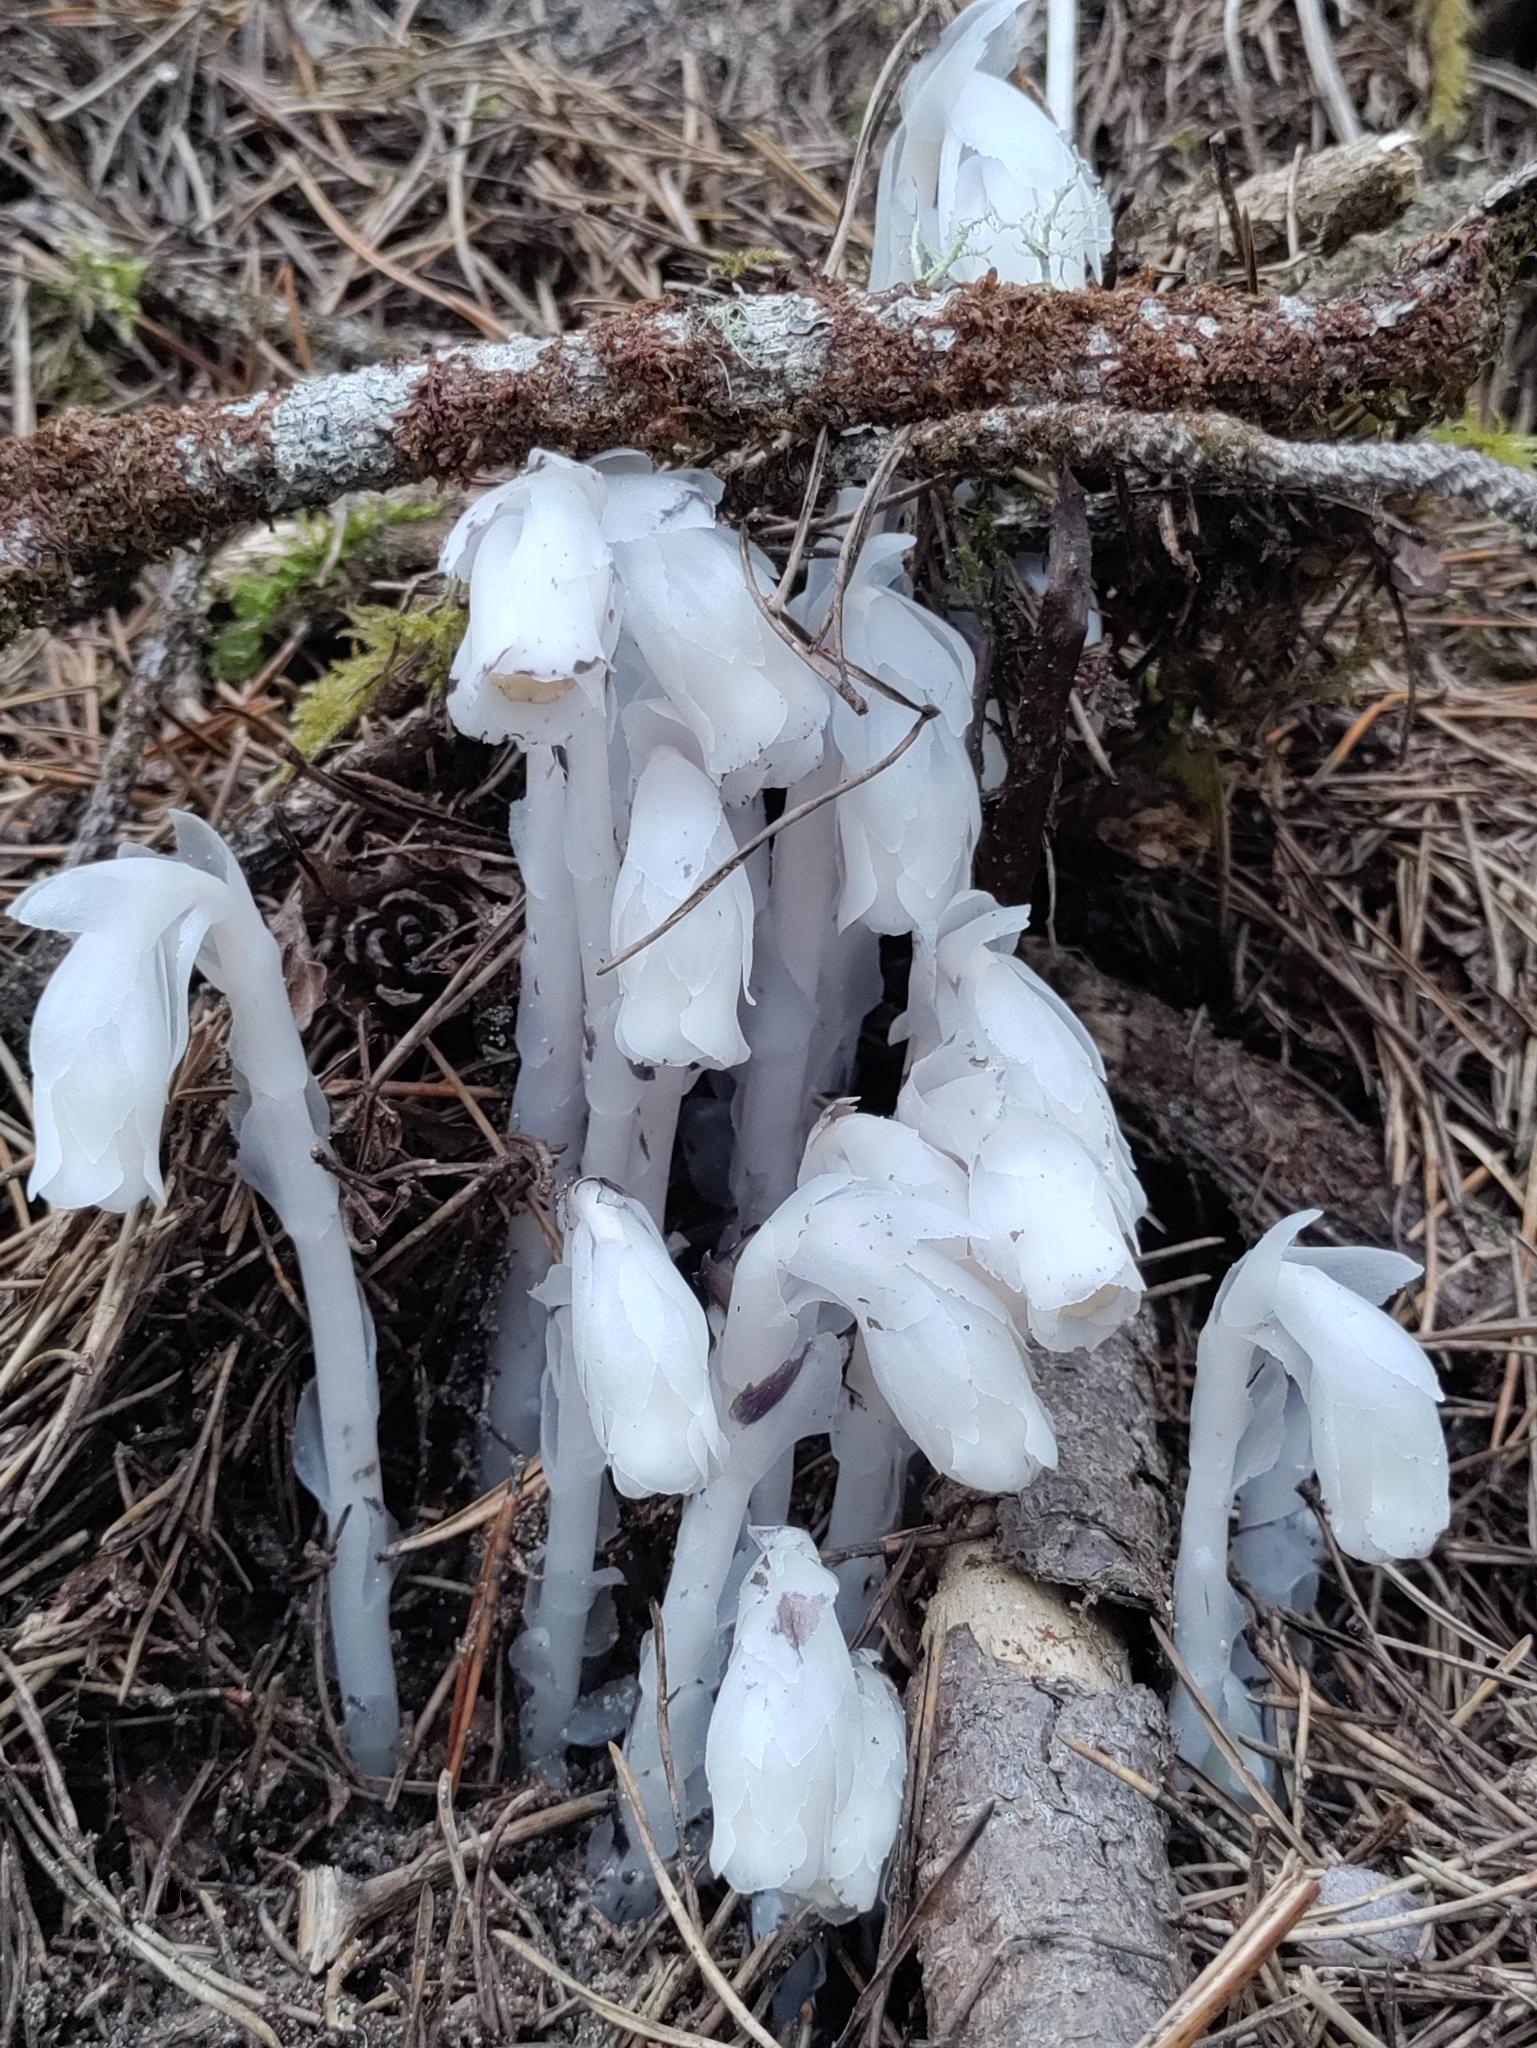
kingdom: Plantae
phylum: Tracheophyta
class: Magnoliopsida
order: Ericales
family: Ericaceae
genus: Monotropa
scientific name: Monotropa uniflora
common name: Convulsion root
